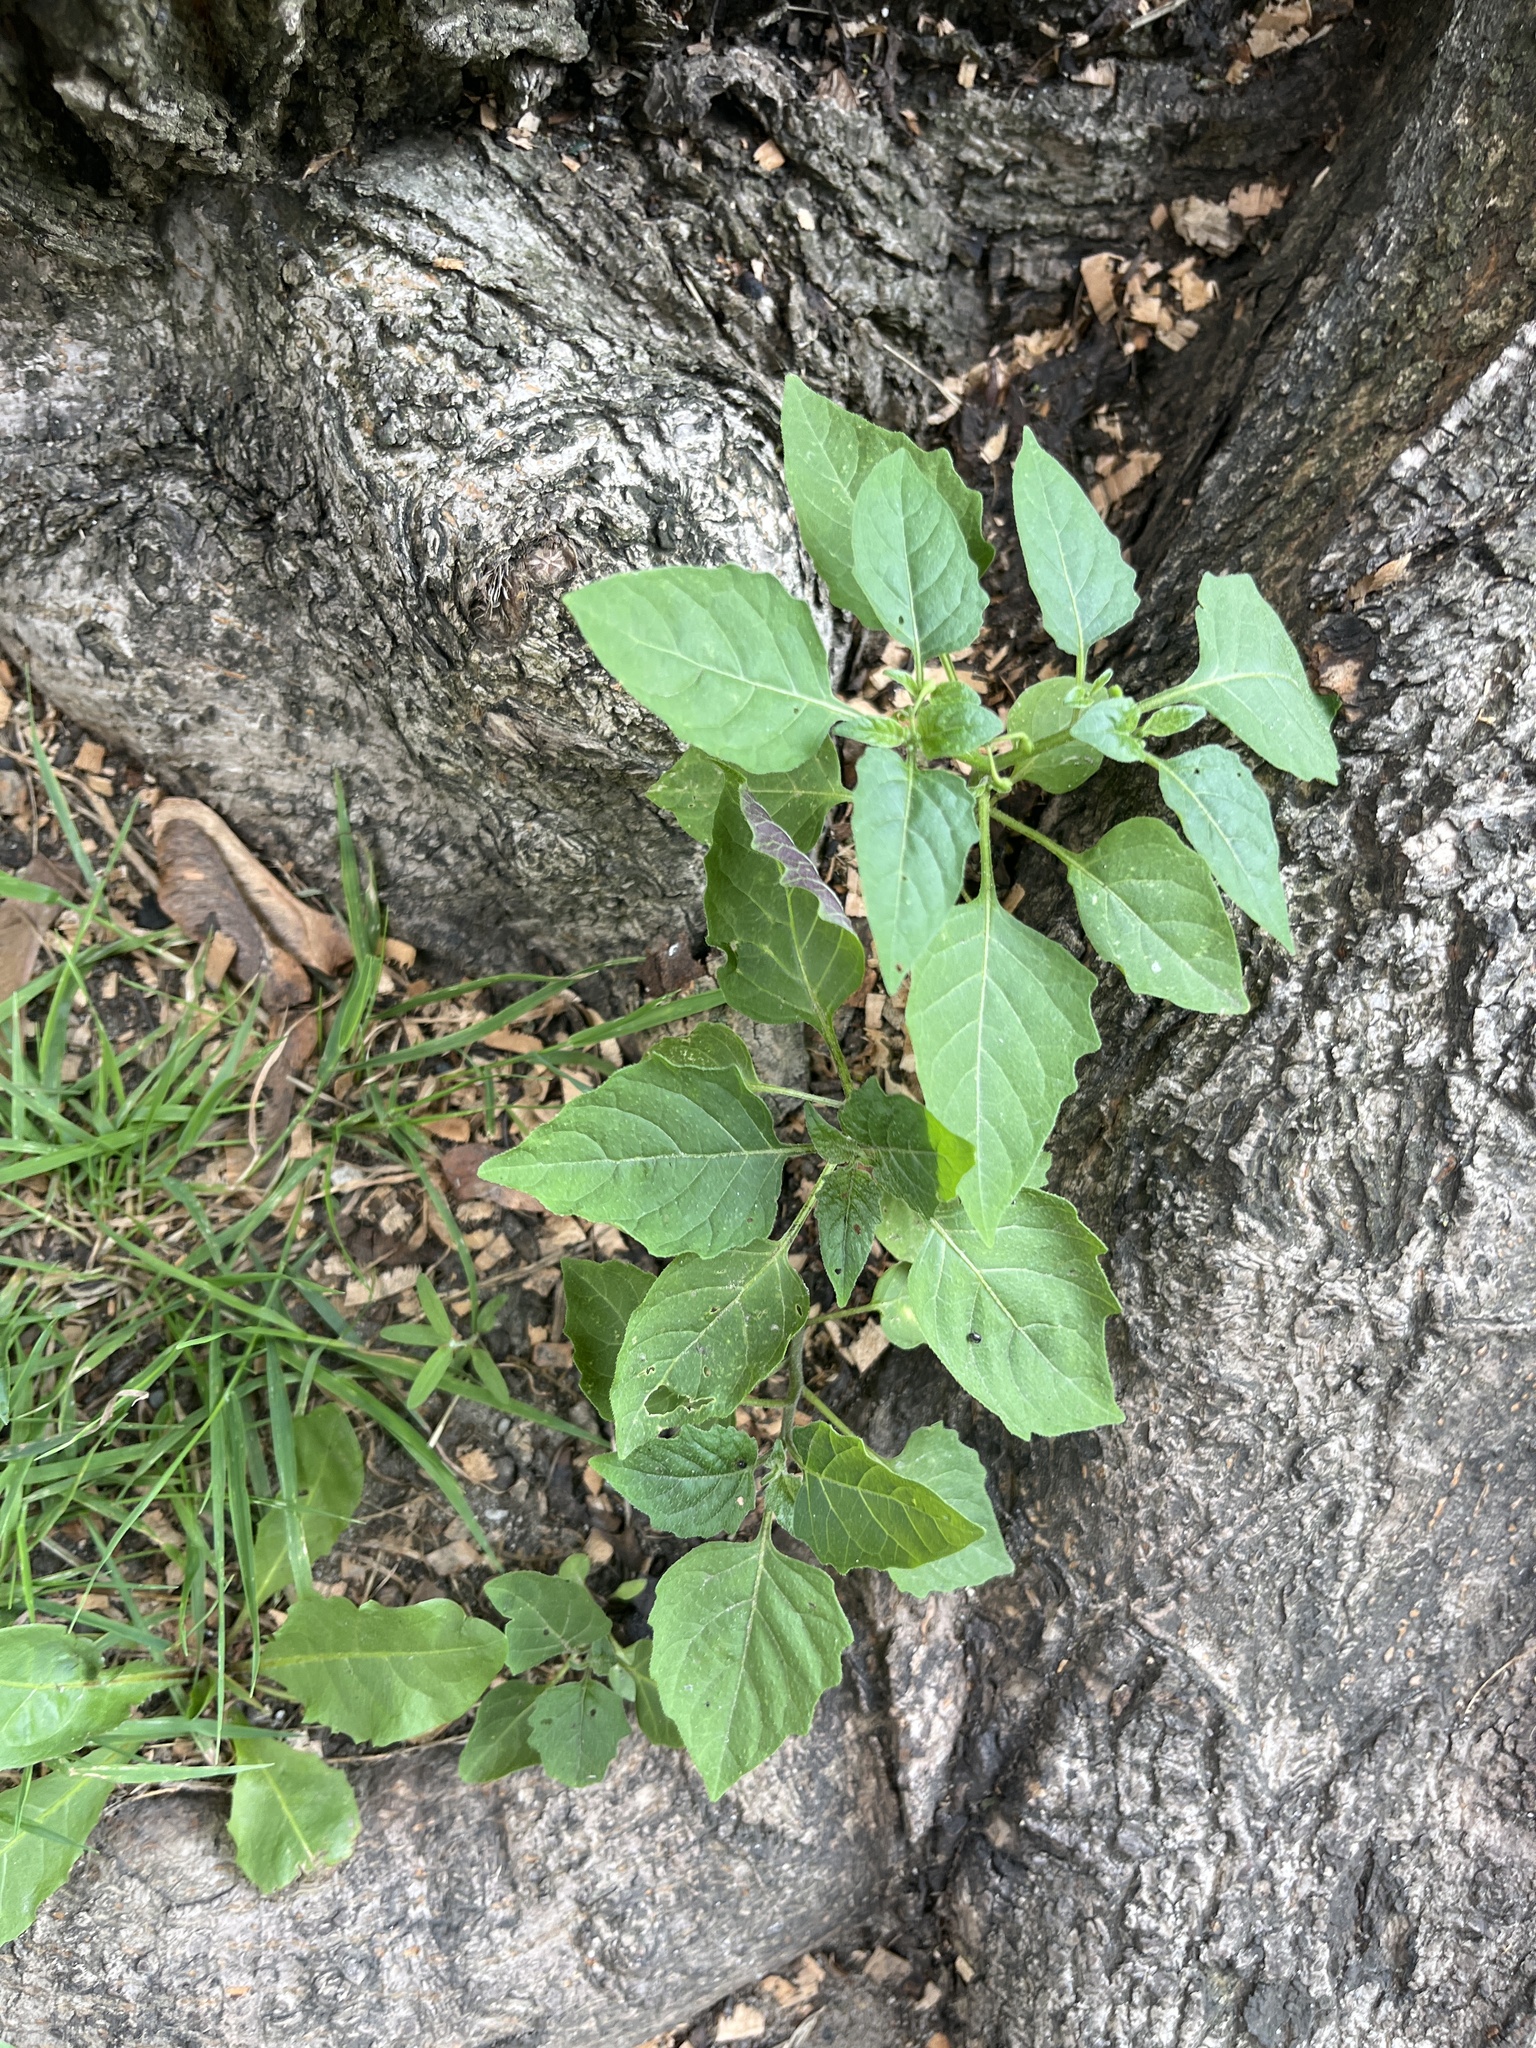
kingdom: Plantae
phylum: Tracheophyta
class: Magnoliopsida
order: Solanales
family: Solanaceae
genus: Solanum
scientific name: Solanum emulans
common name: Eastern black nightshade
